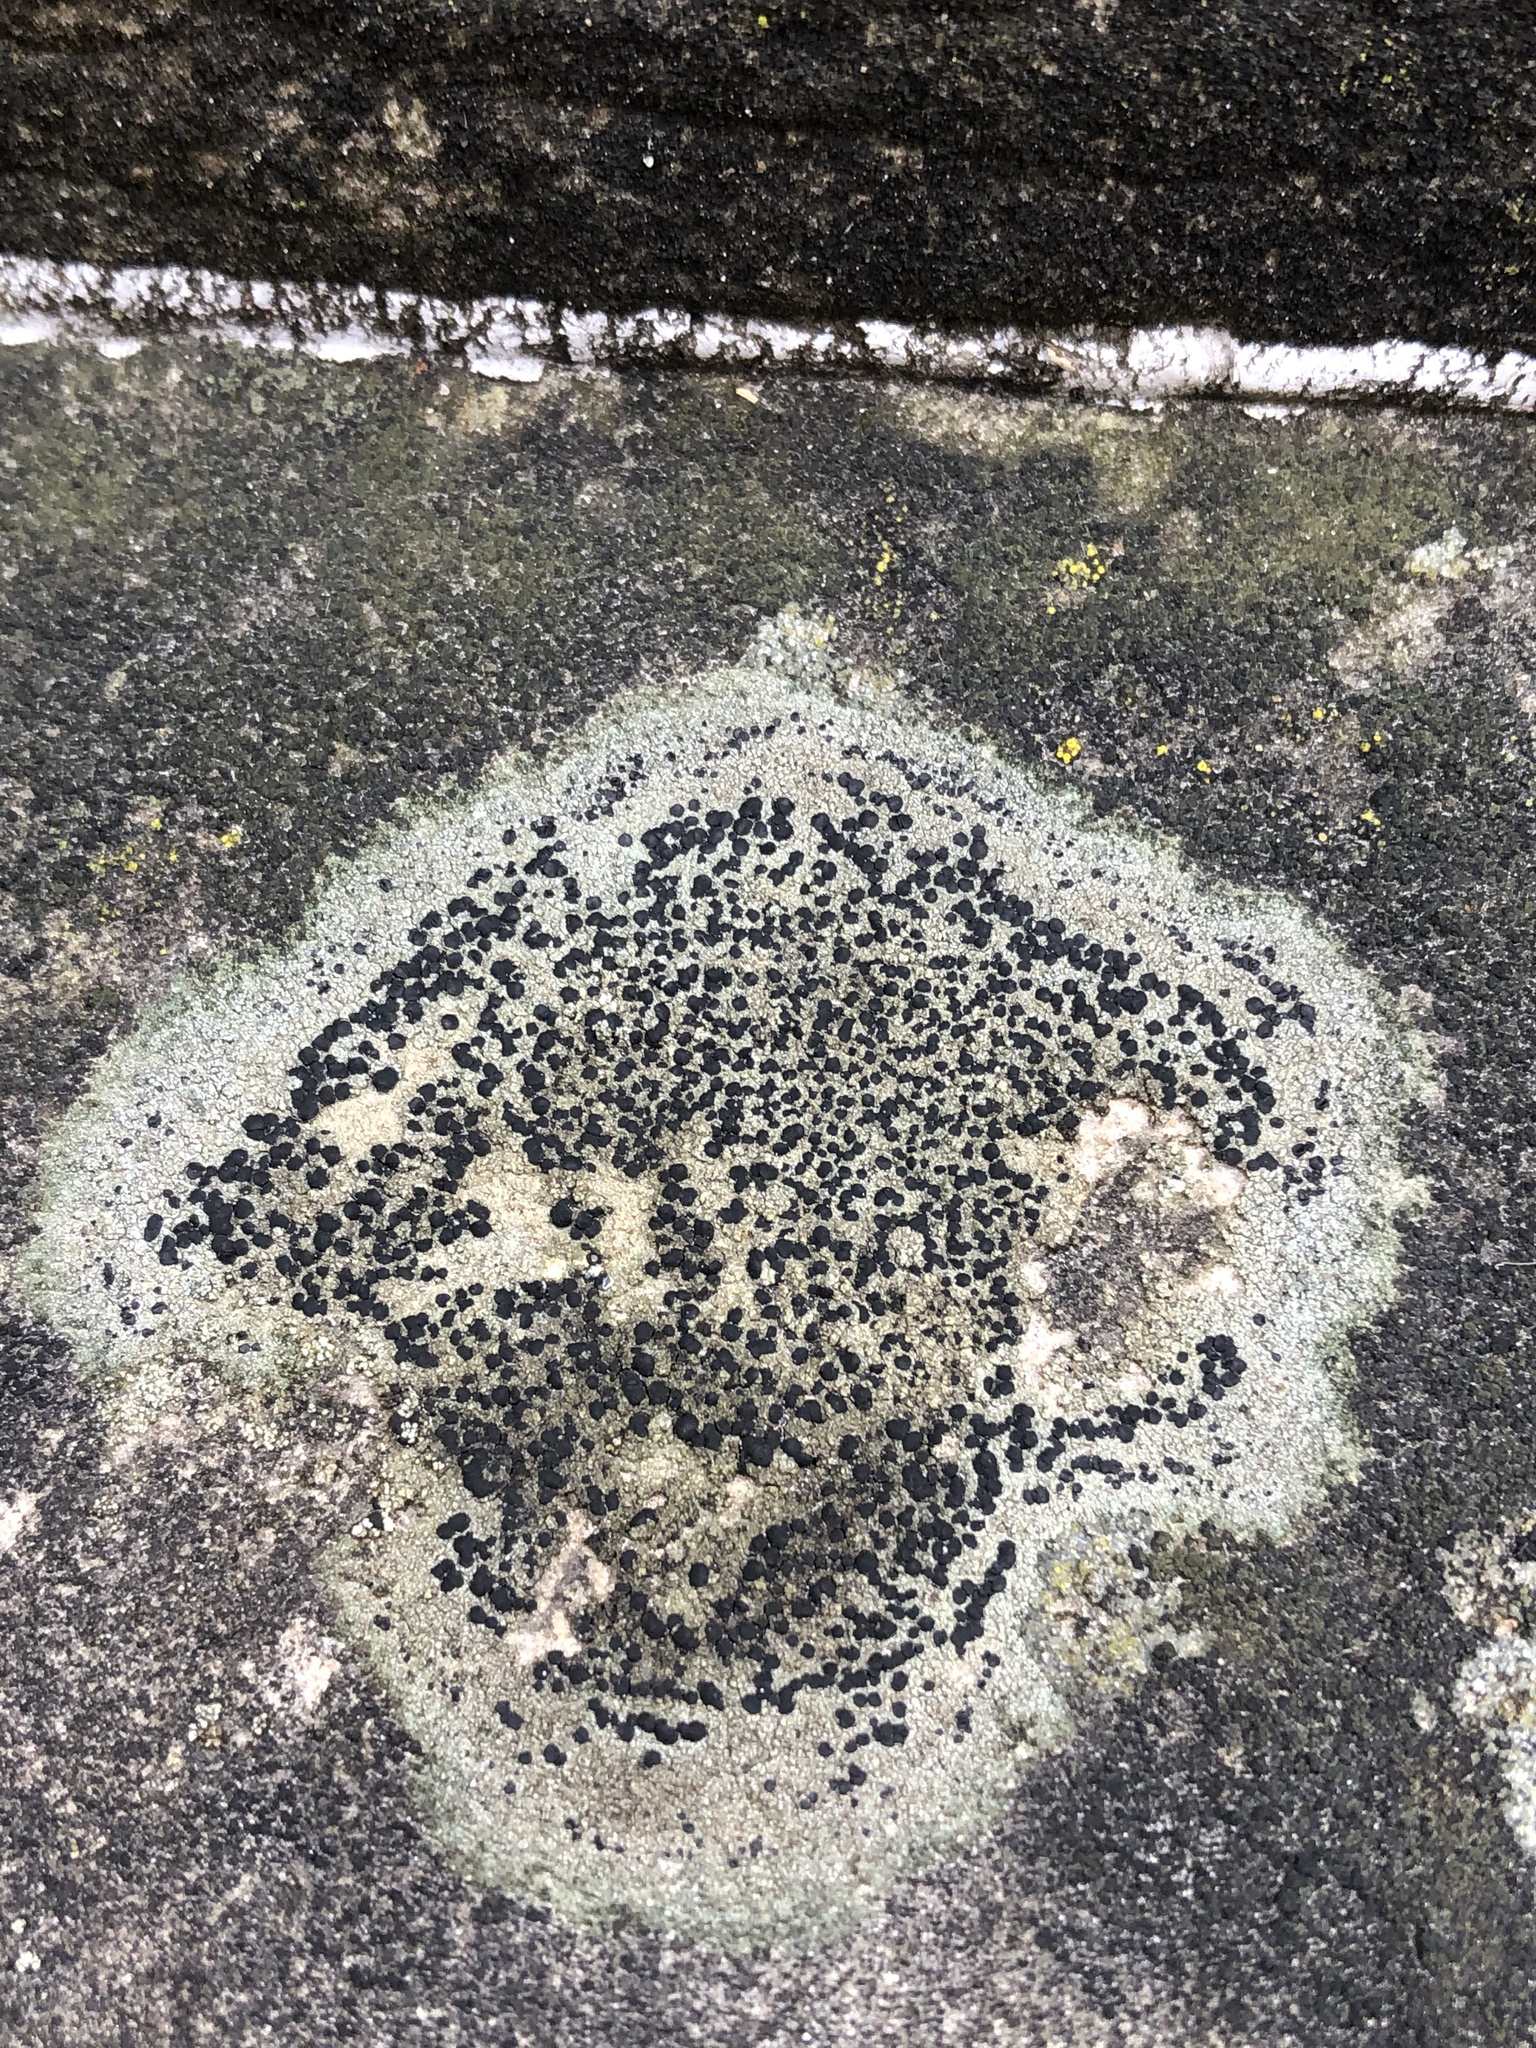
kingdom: Fungi
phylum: Ascomycota
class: Lecanoromycetes
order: Lecideales
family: Lecideaceae
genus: Porpidia
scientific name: Porpidia albocaerulescens
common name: Smokey-eyed boulder lichen
